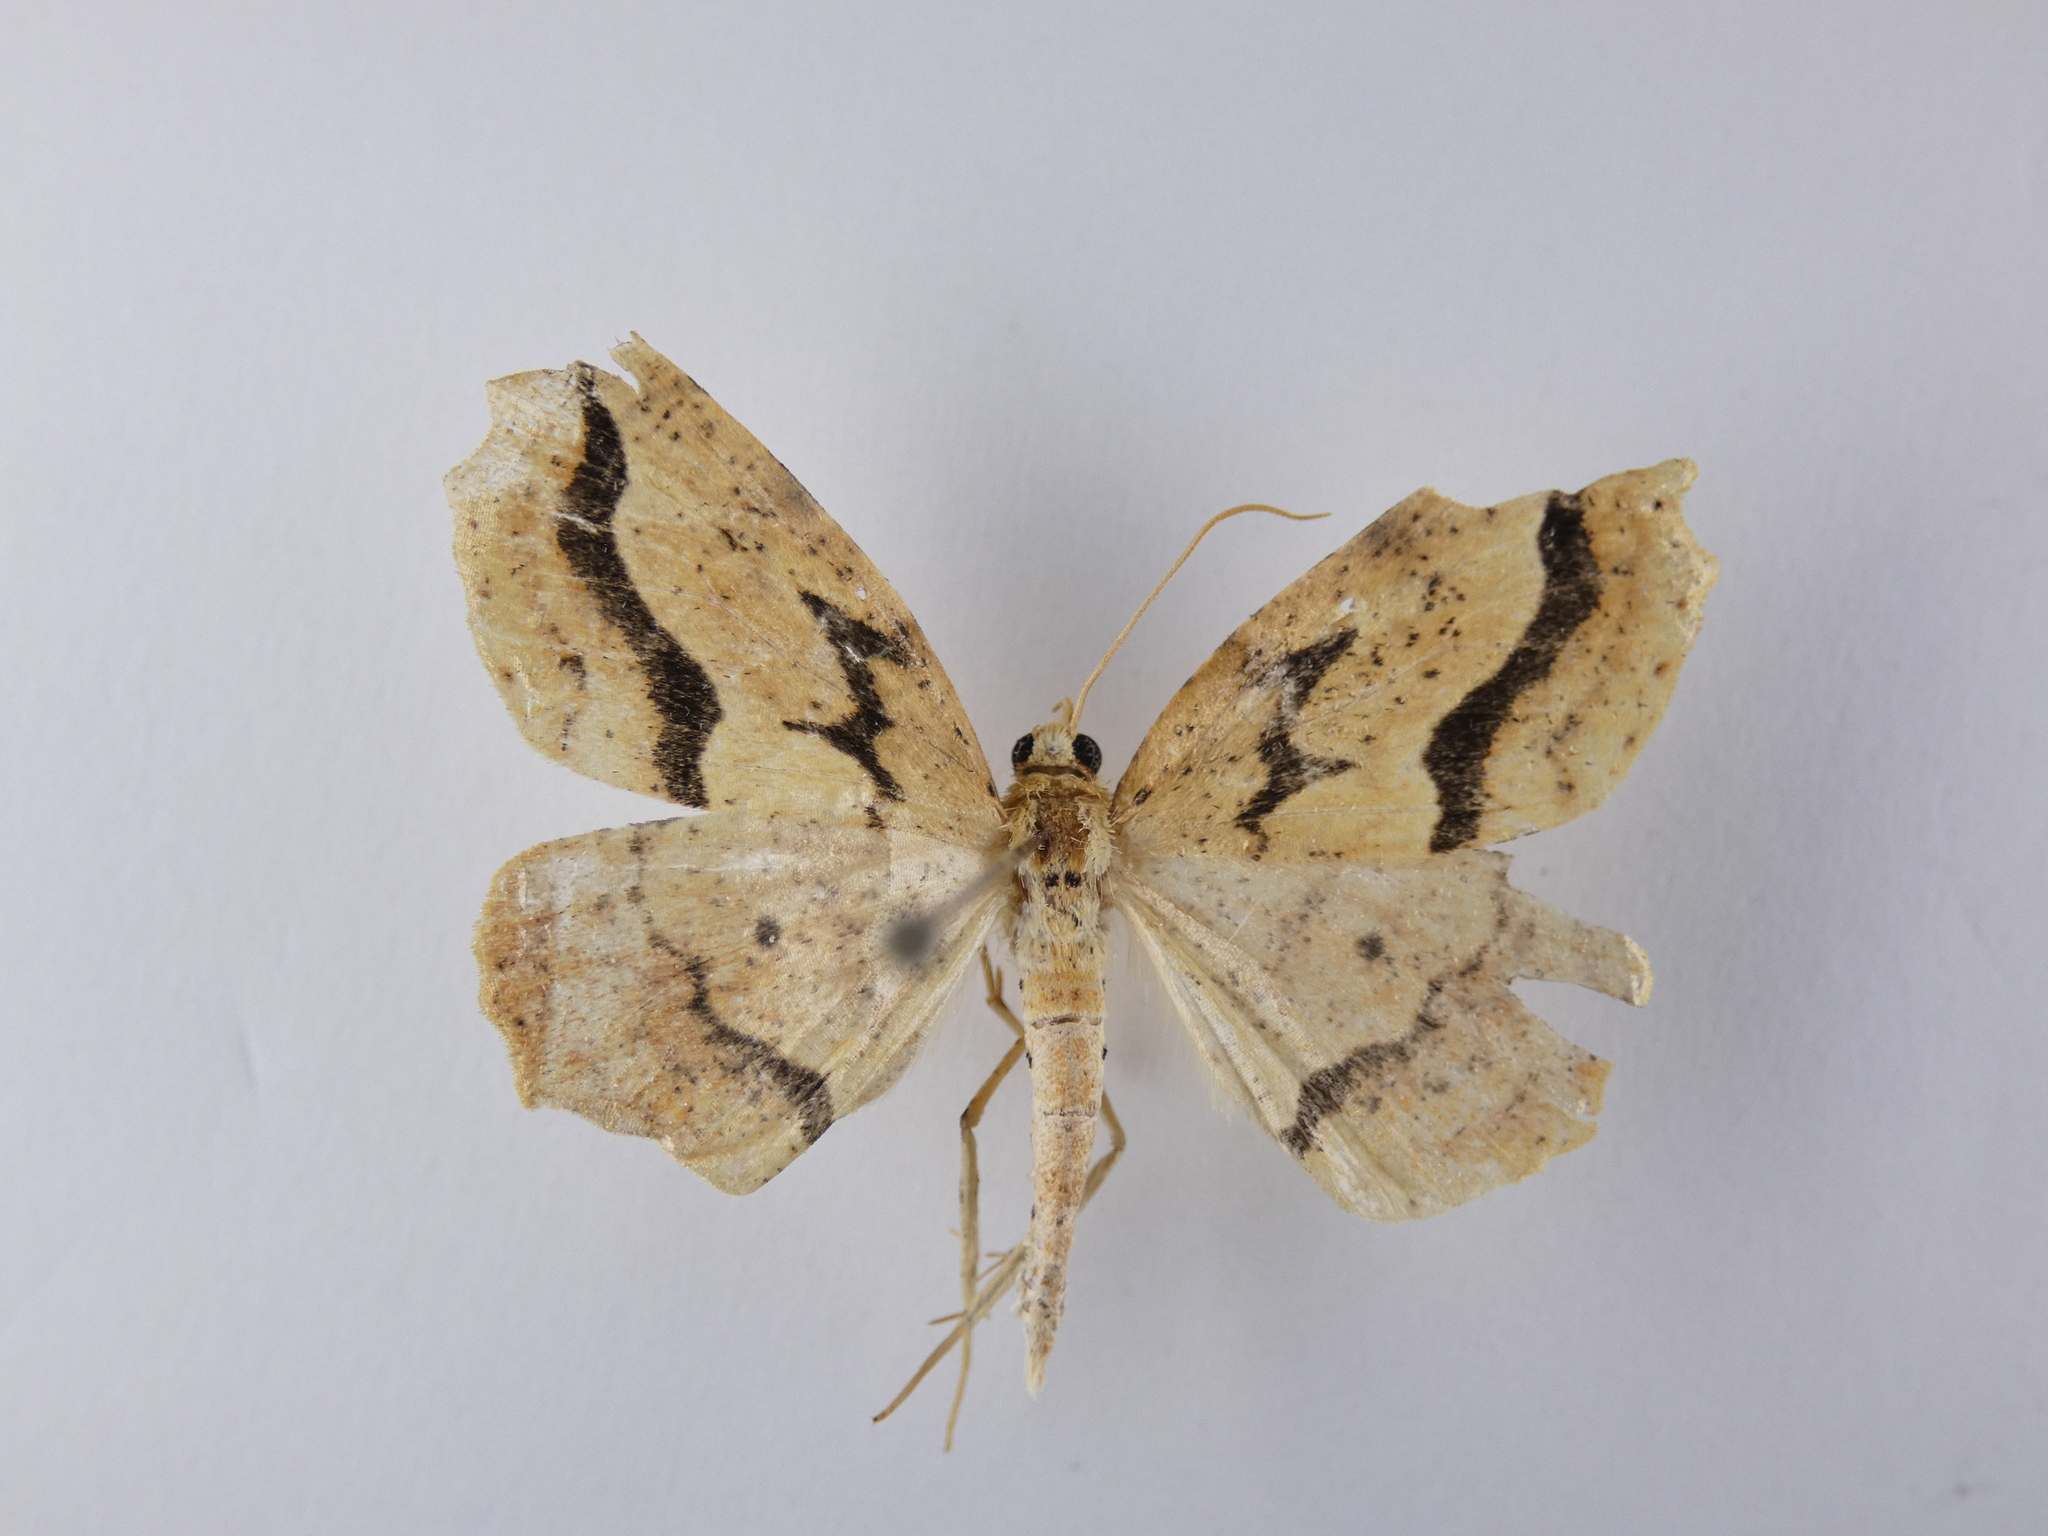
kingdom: Animalia
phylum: Arthropoda
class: Insecta
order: Lepidoptera
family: Geometridae
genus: Ischalis
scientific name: Ischalis variabilis
